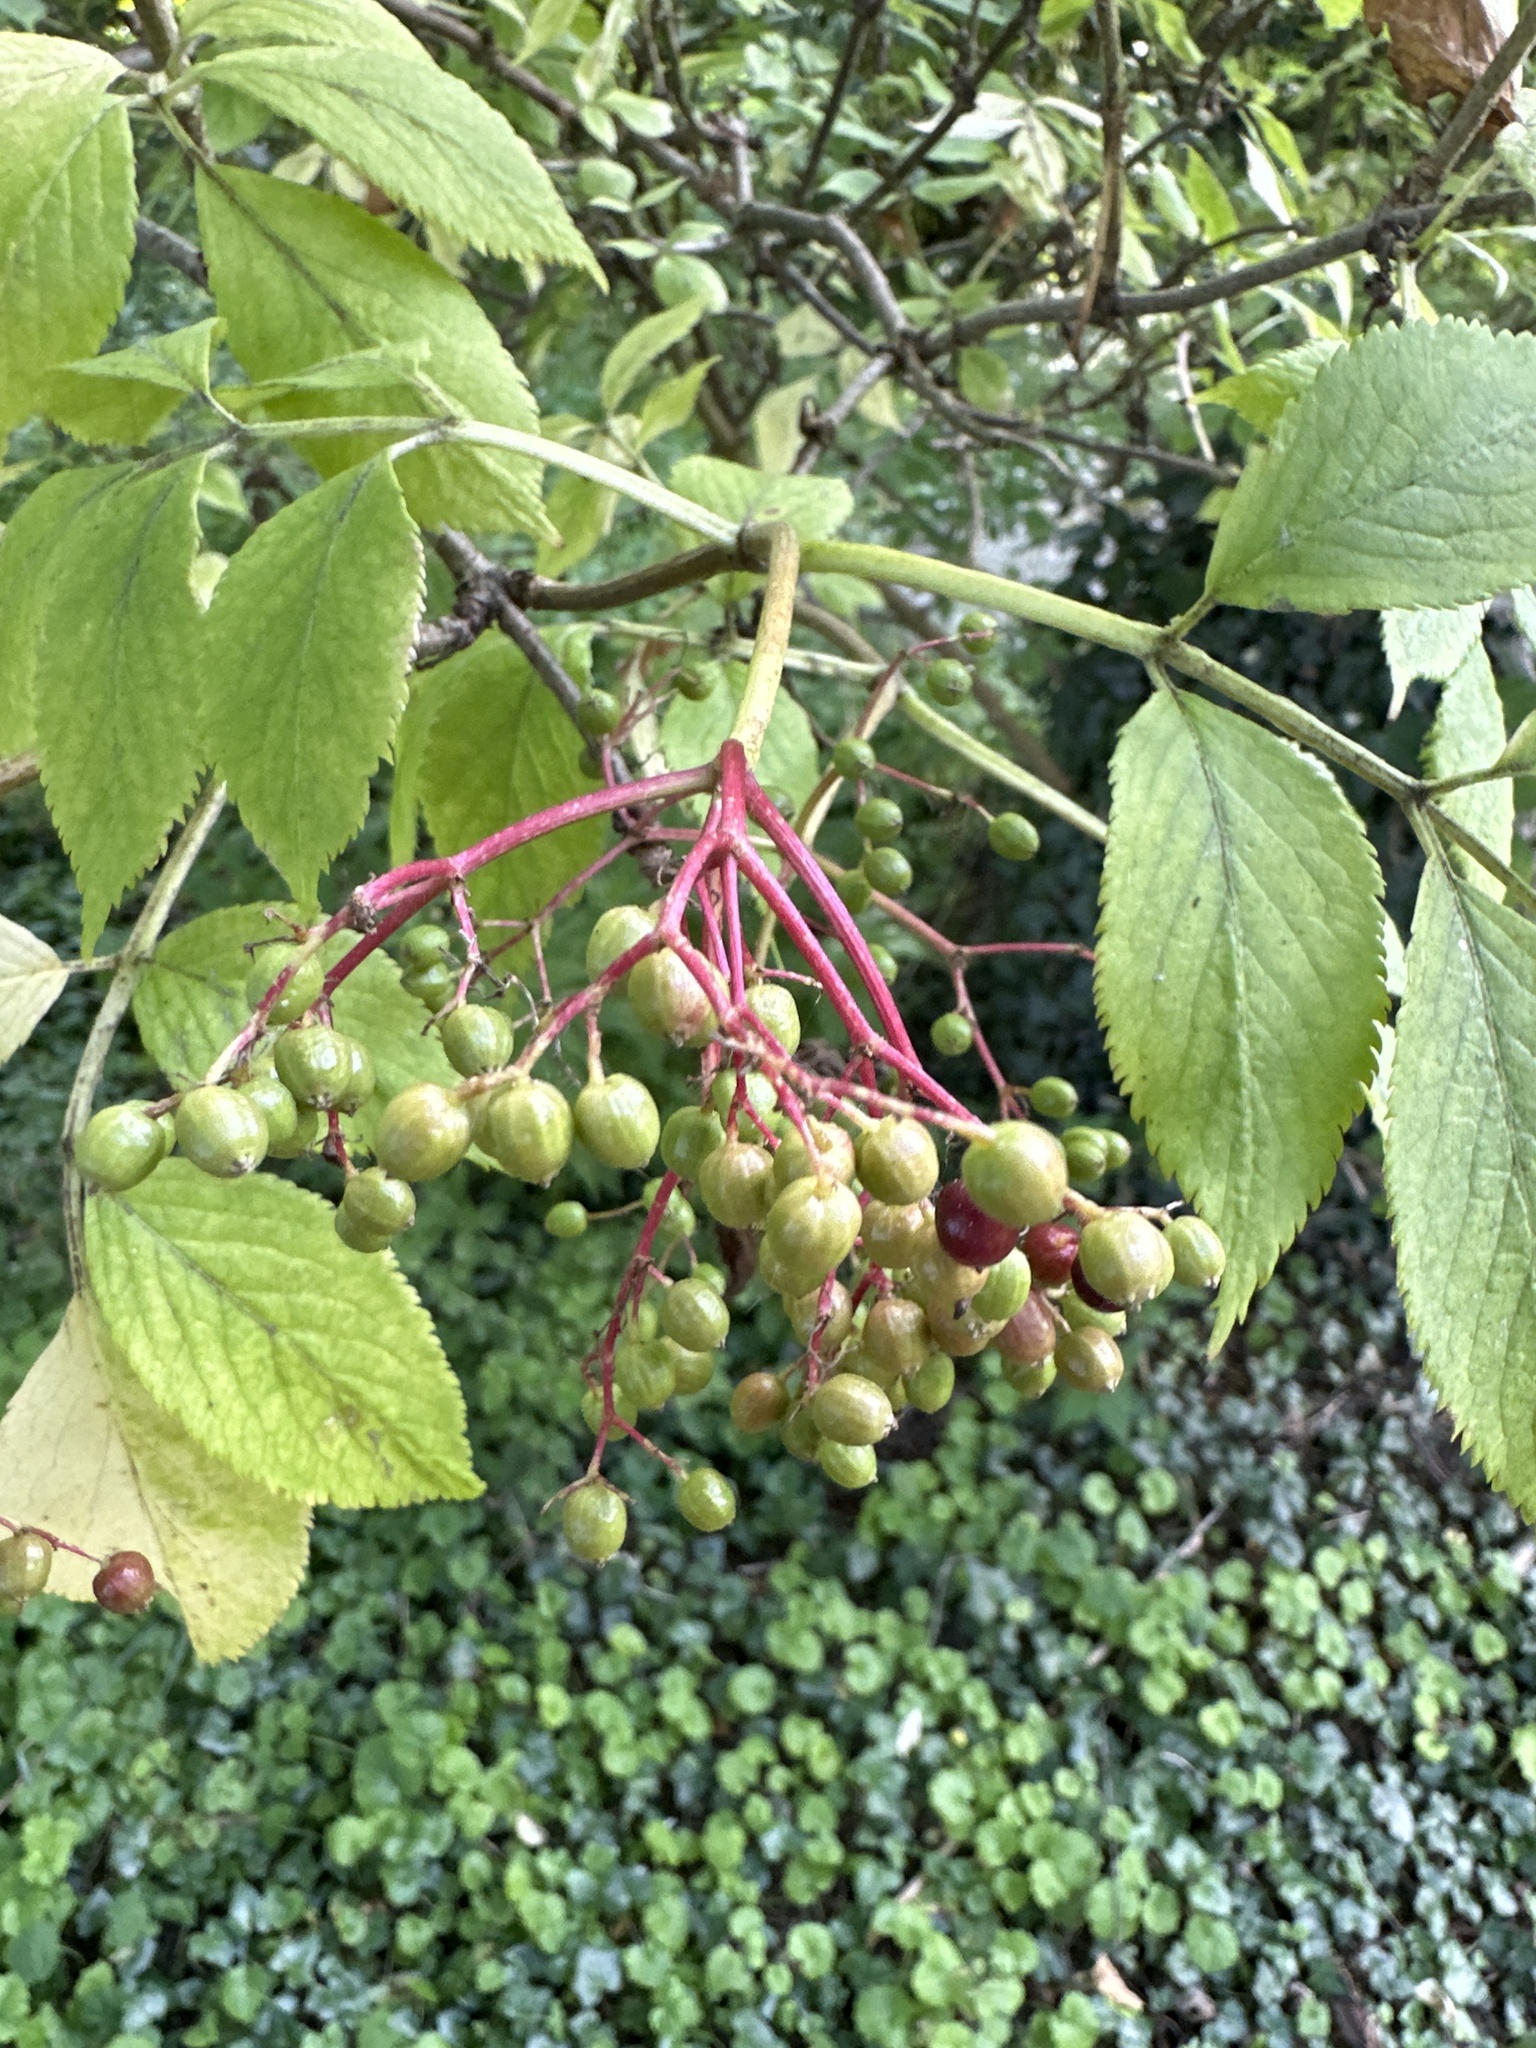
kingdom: Plantae
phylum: Tracheophyta
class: Magnoliopsida
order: Dipsacales
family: Viburnaceae
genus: Sambucus
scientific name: Sambucus nigra
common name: Elder
